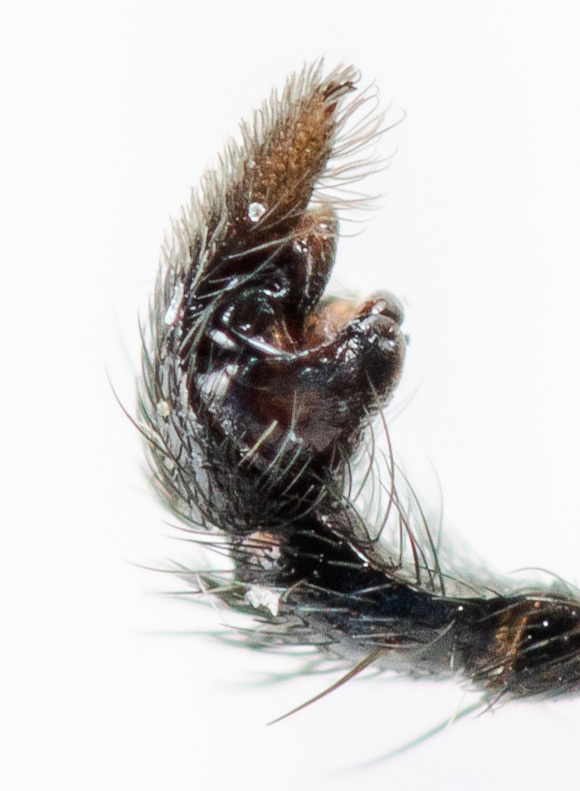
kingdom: Animalia
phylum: Arthropoda
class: Arachnida
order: Araneae
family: Lycosidae
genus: Pardosa
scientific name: Pardosa bifasciata
